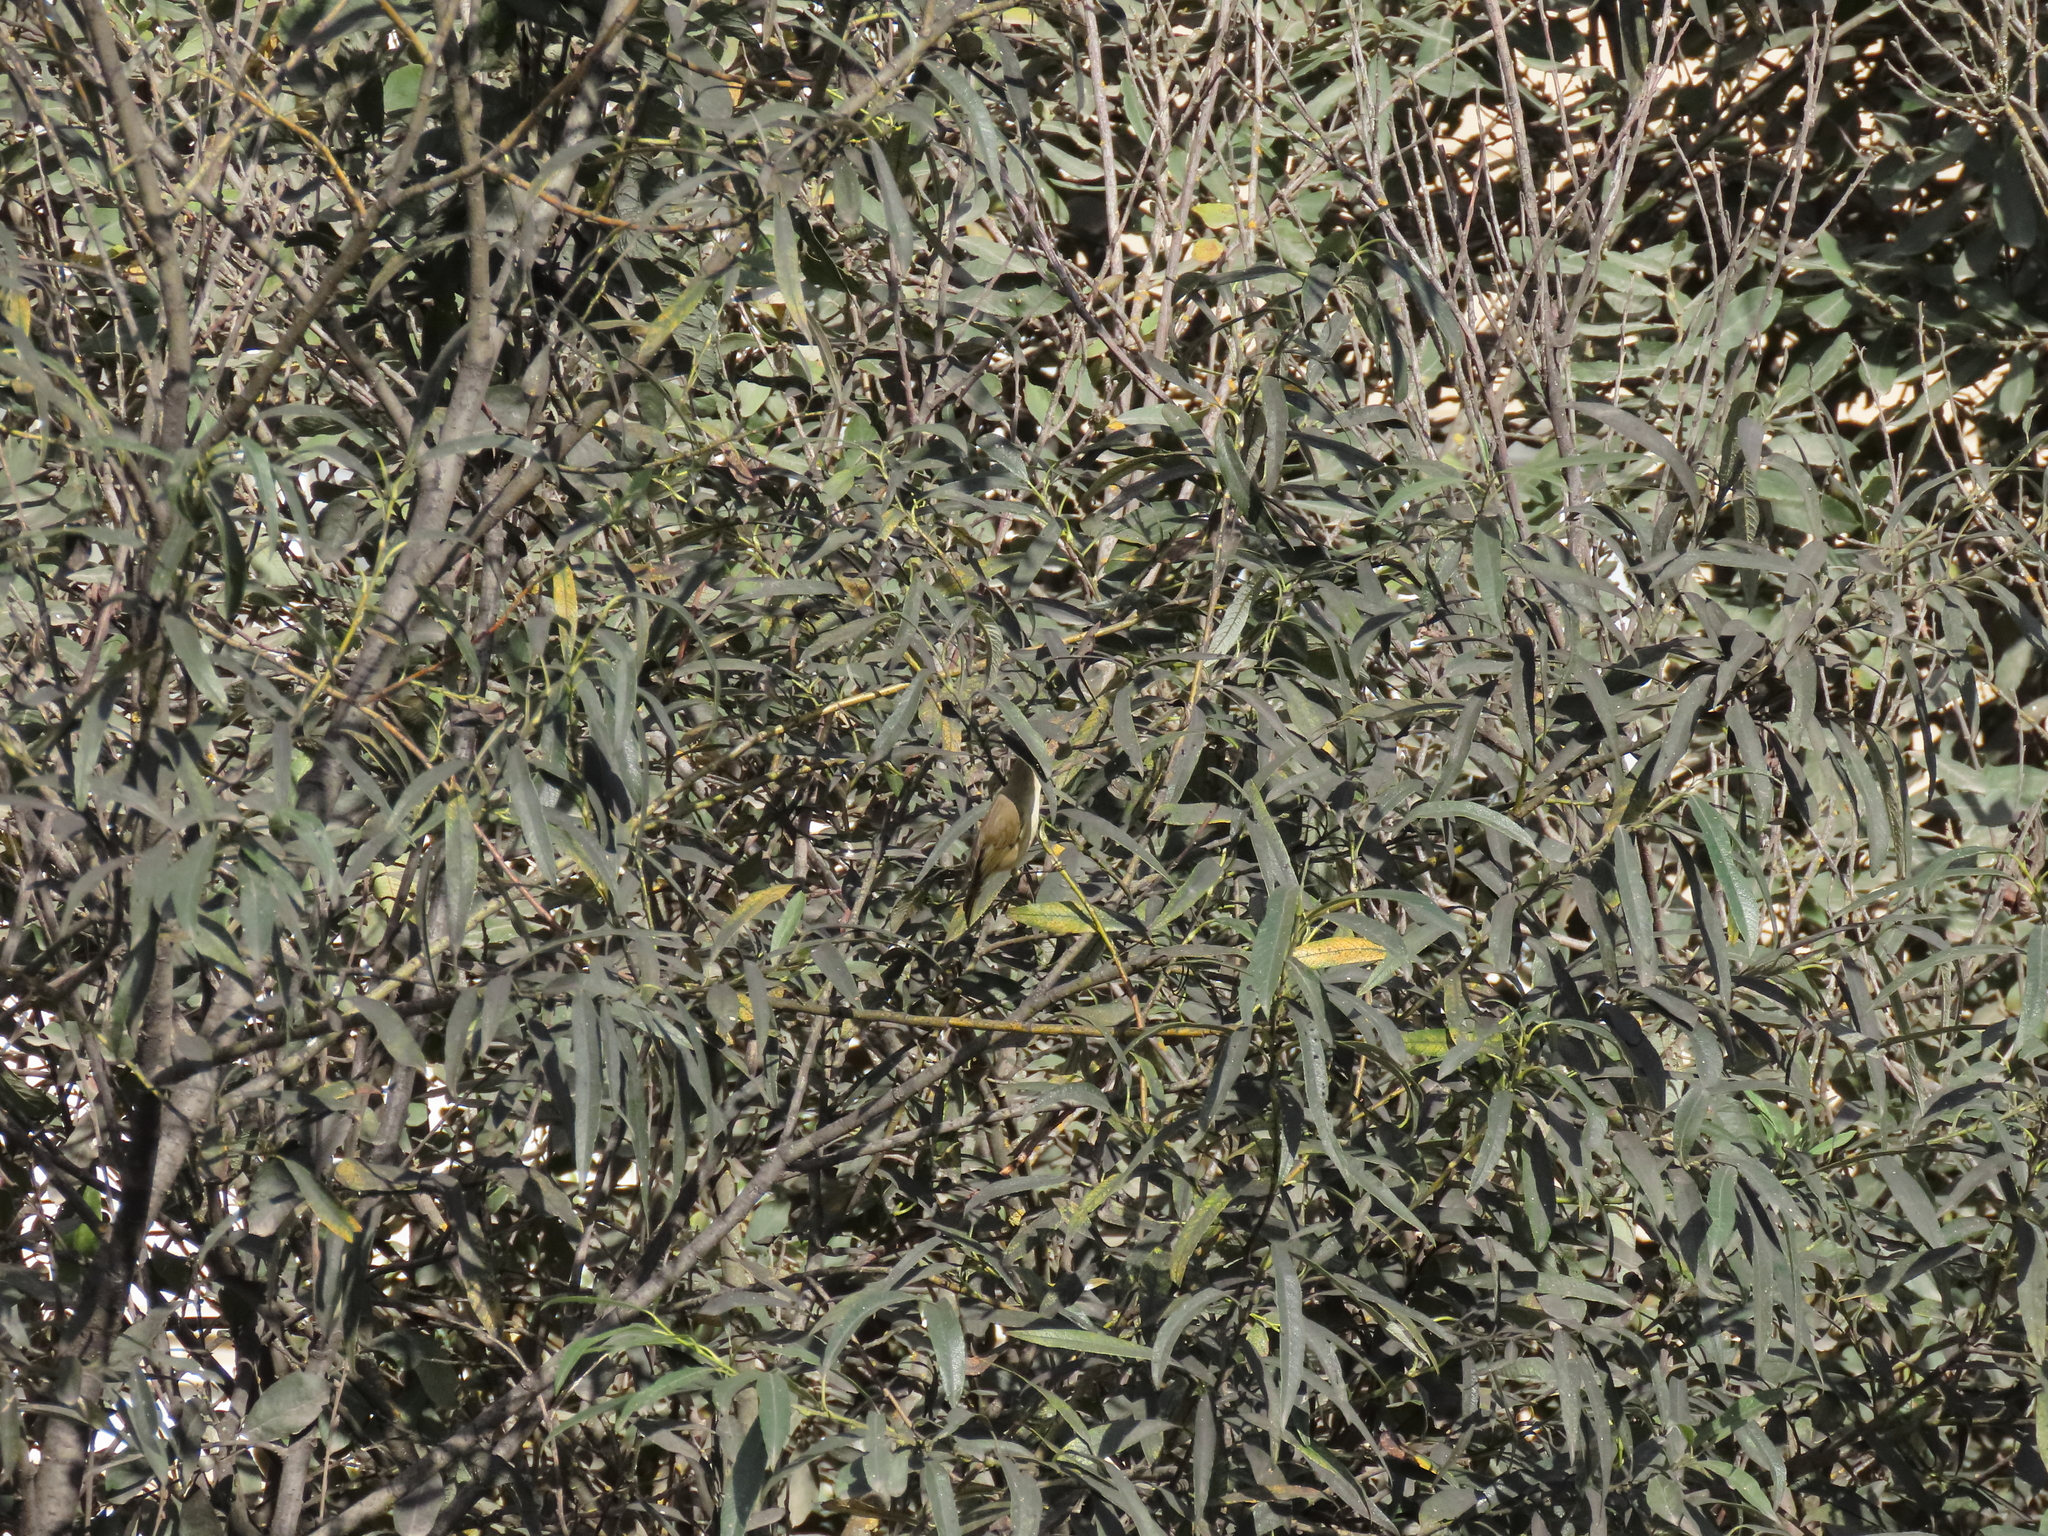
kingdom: Animalia
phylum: Chordata
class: Aves
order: Passeriformes
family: Phylloscopidae
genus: Phylloscopus
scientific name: Phylloscopus collybita
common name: Common chiffchaff
